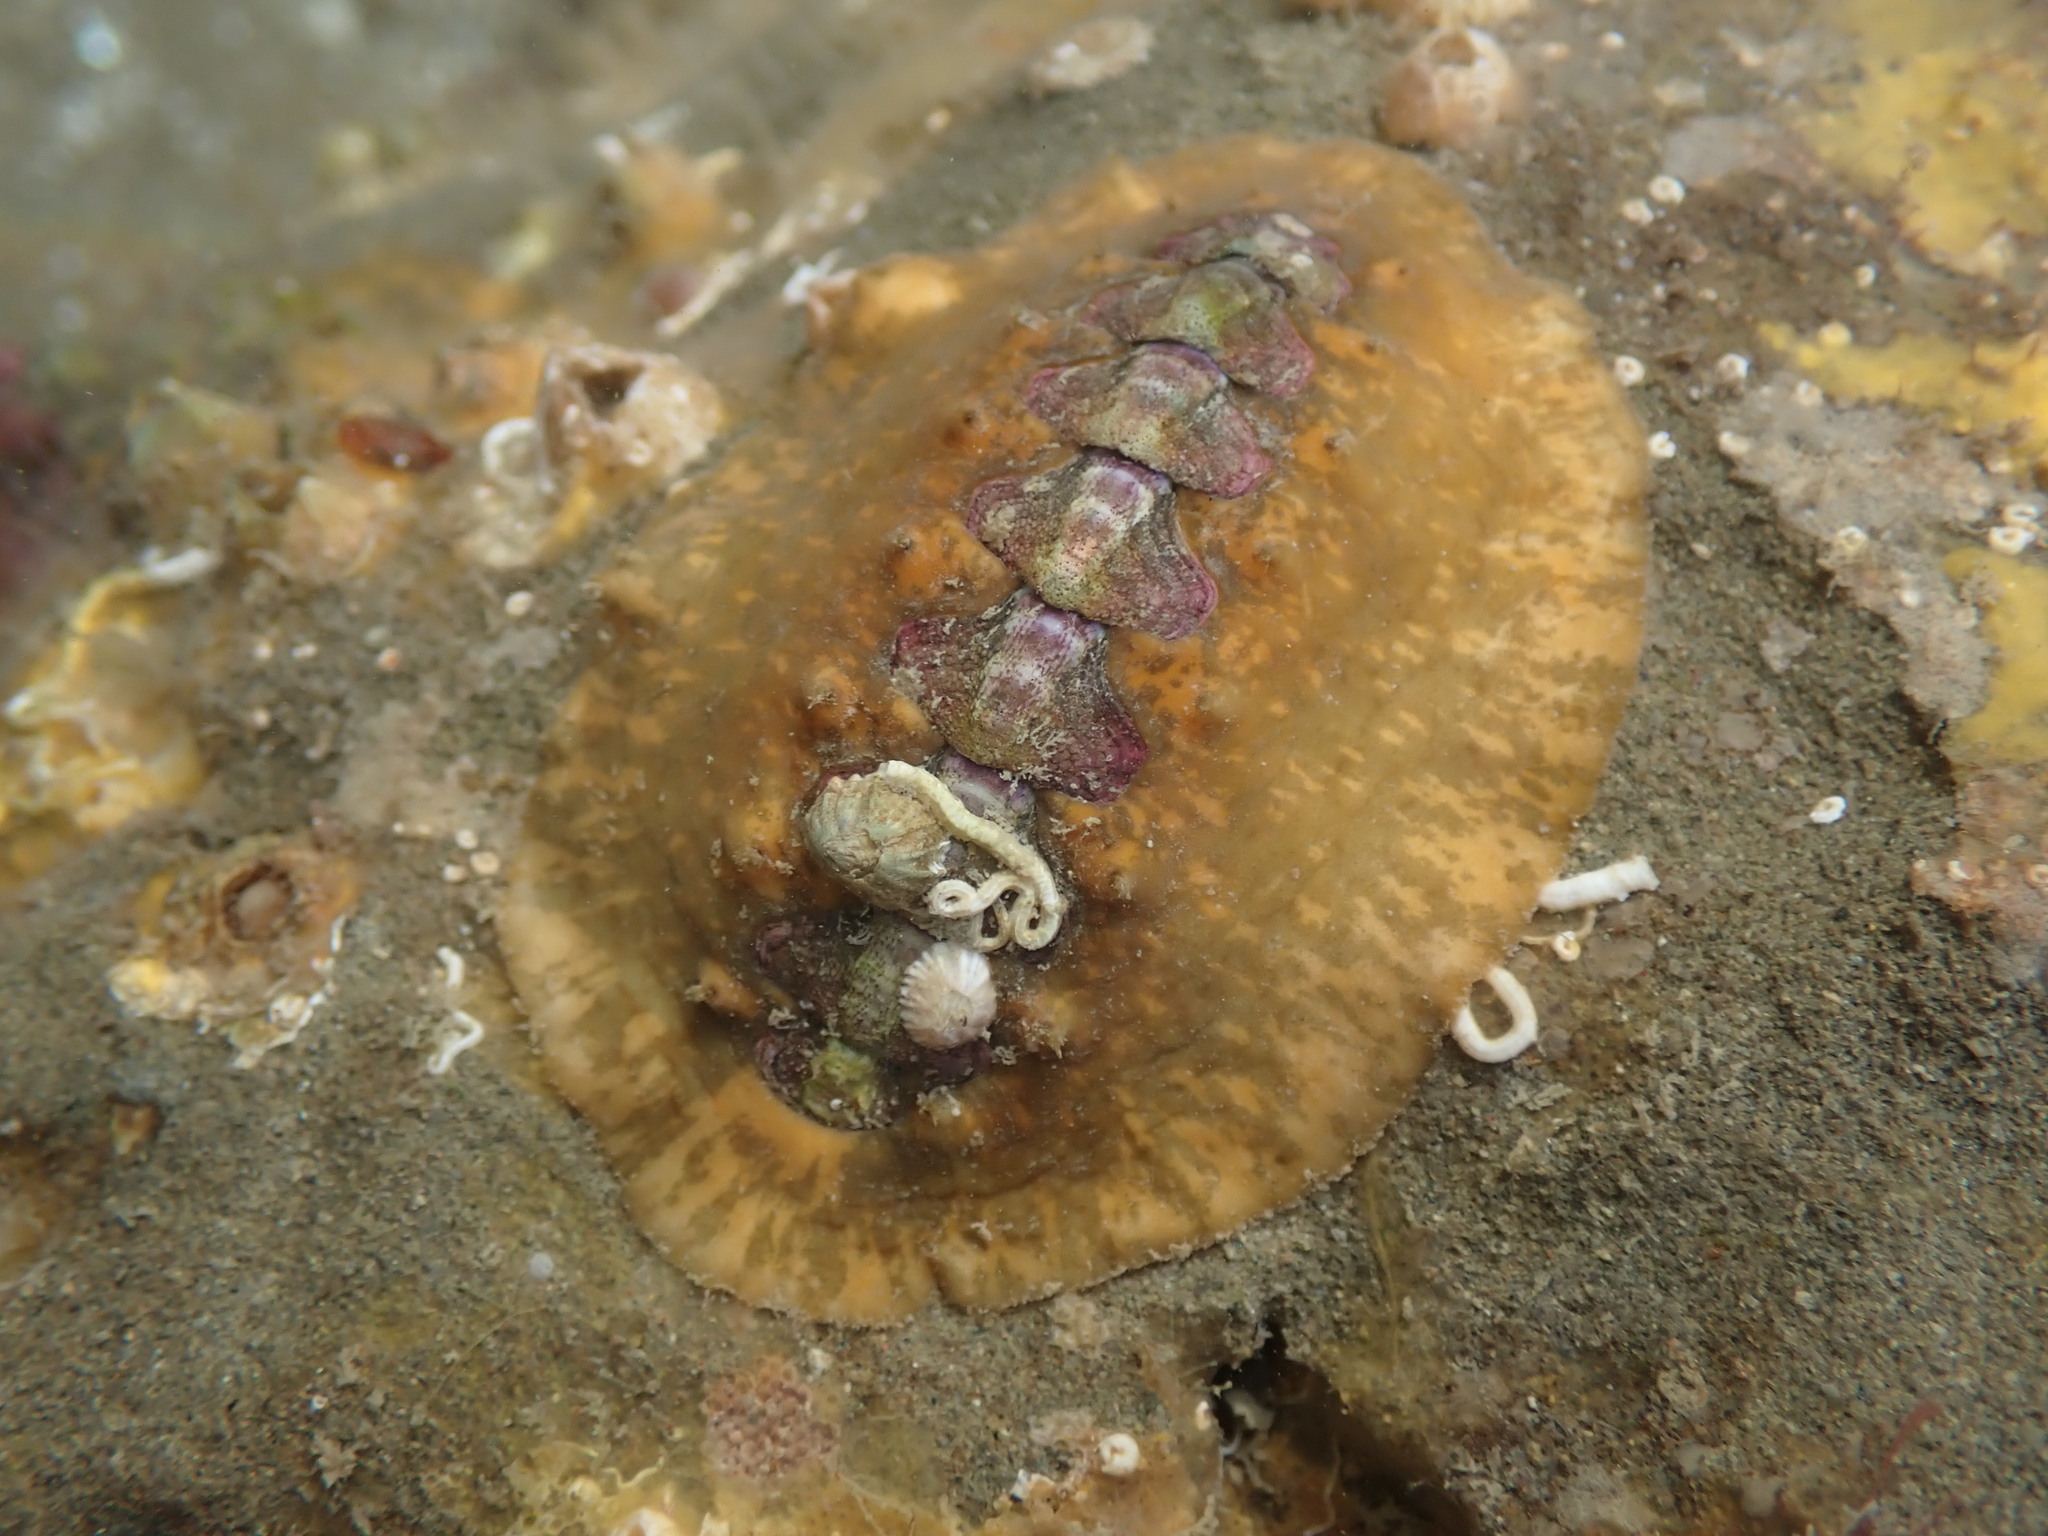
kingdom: Animalia
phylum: Mollusca
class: Polyplacophora
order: Chitonida
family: Acanthochitonidae
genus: Notoplax
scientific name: Notoplax violacea
